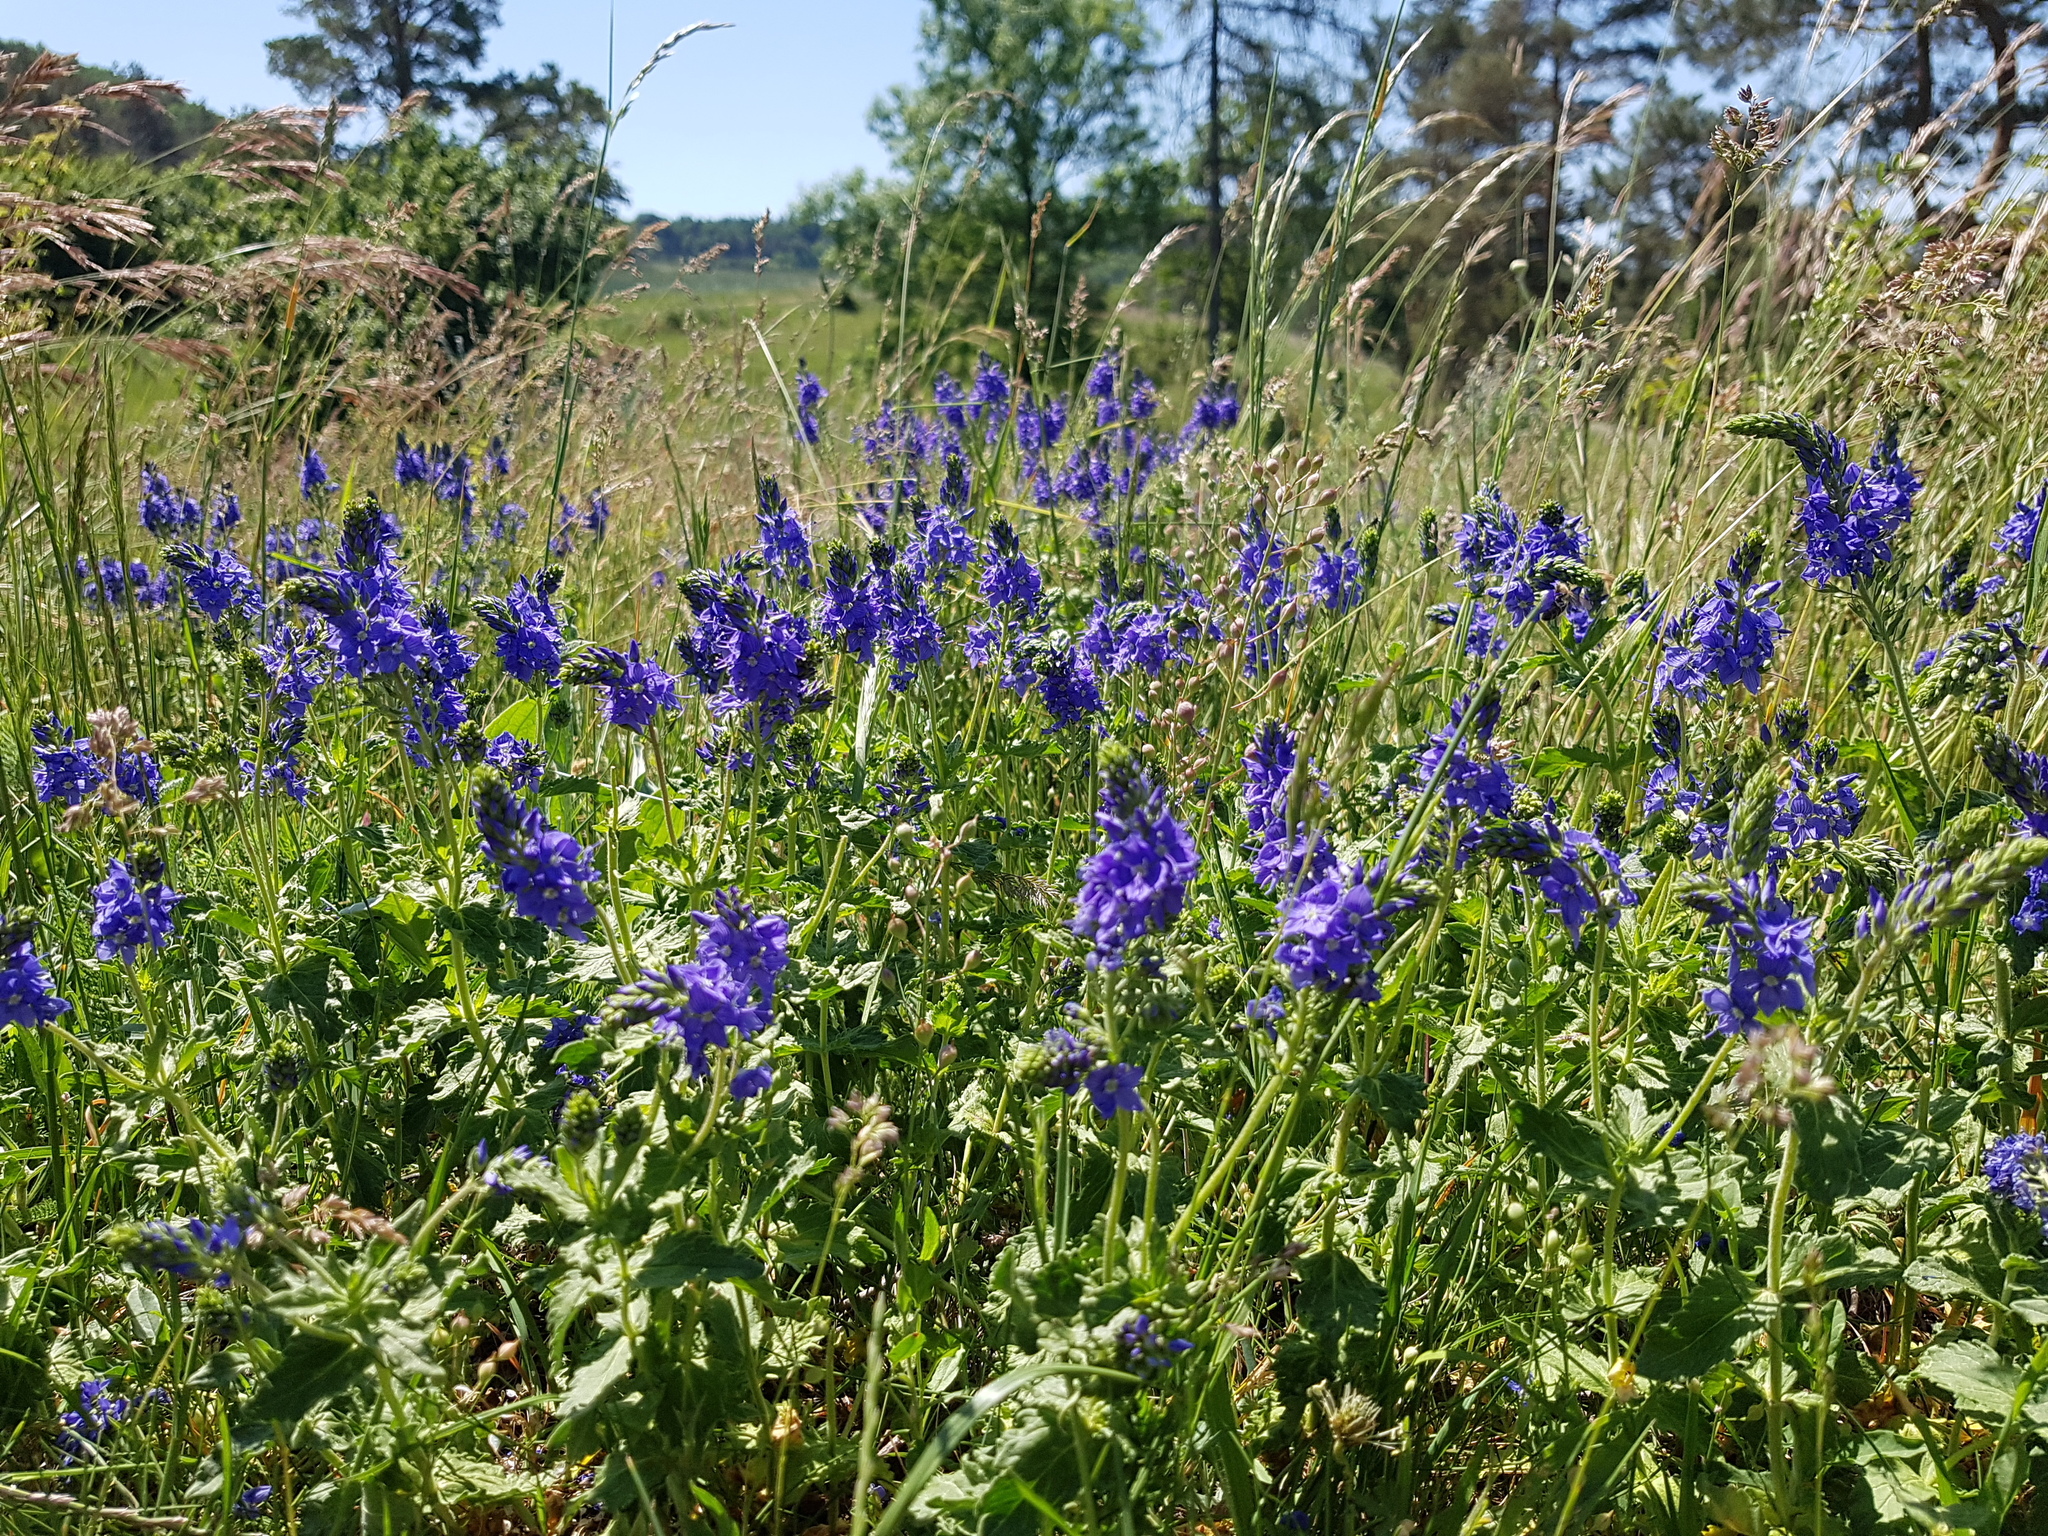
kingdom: Plantae
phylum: Tracheophyta
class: Magnoliopsida
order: Lamiales
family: Plantaginaceae
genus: Veronica
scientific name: Veronica teucrium
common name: Large speedwell
